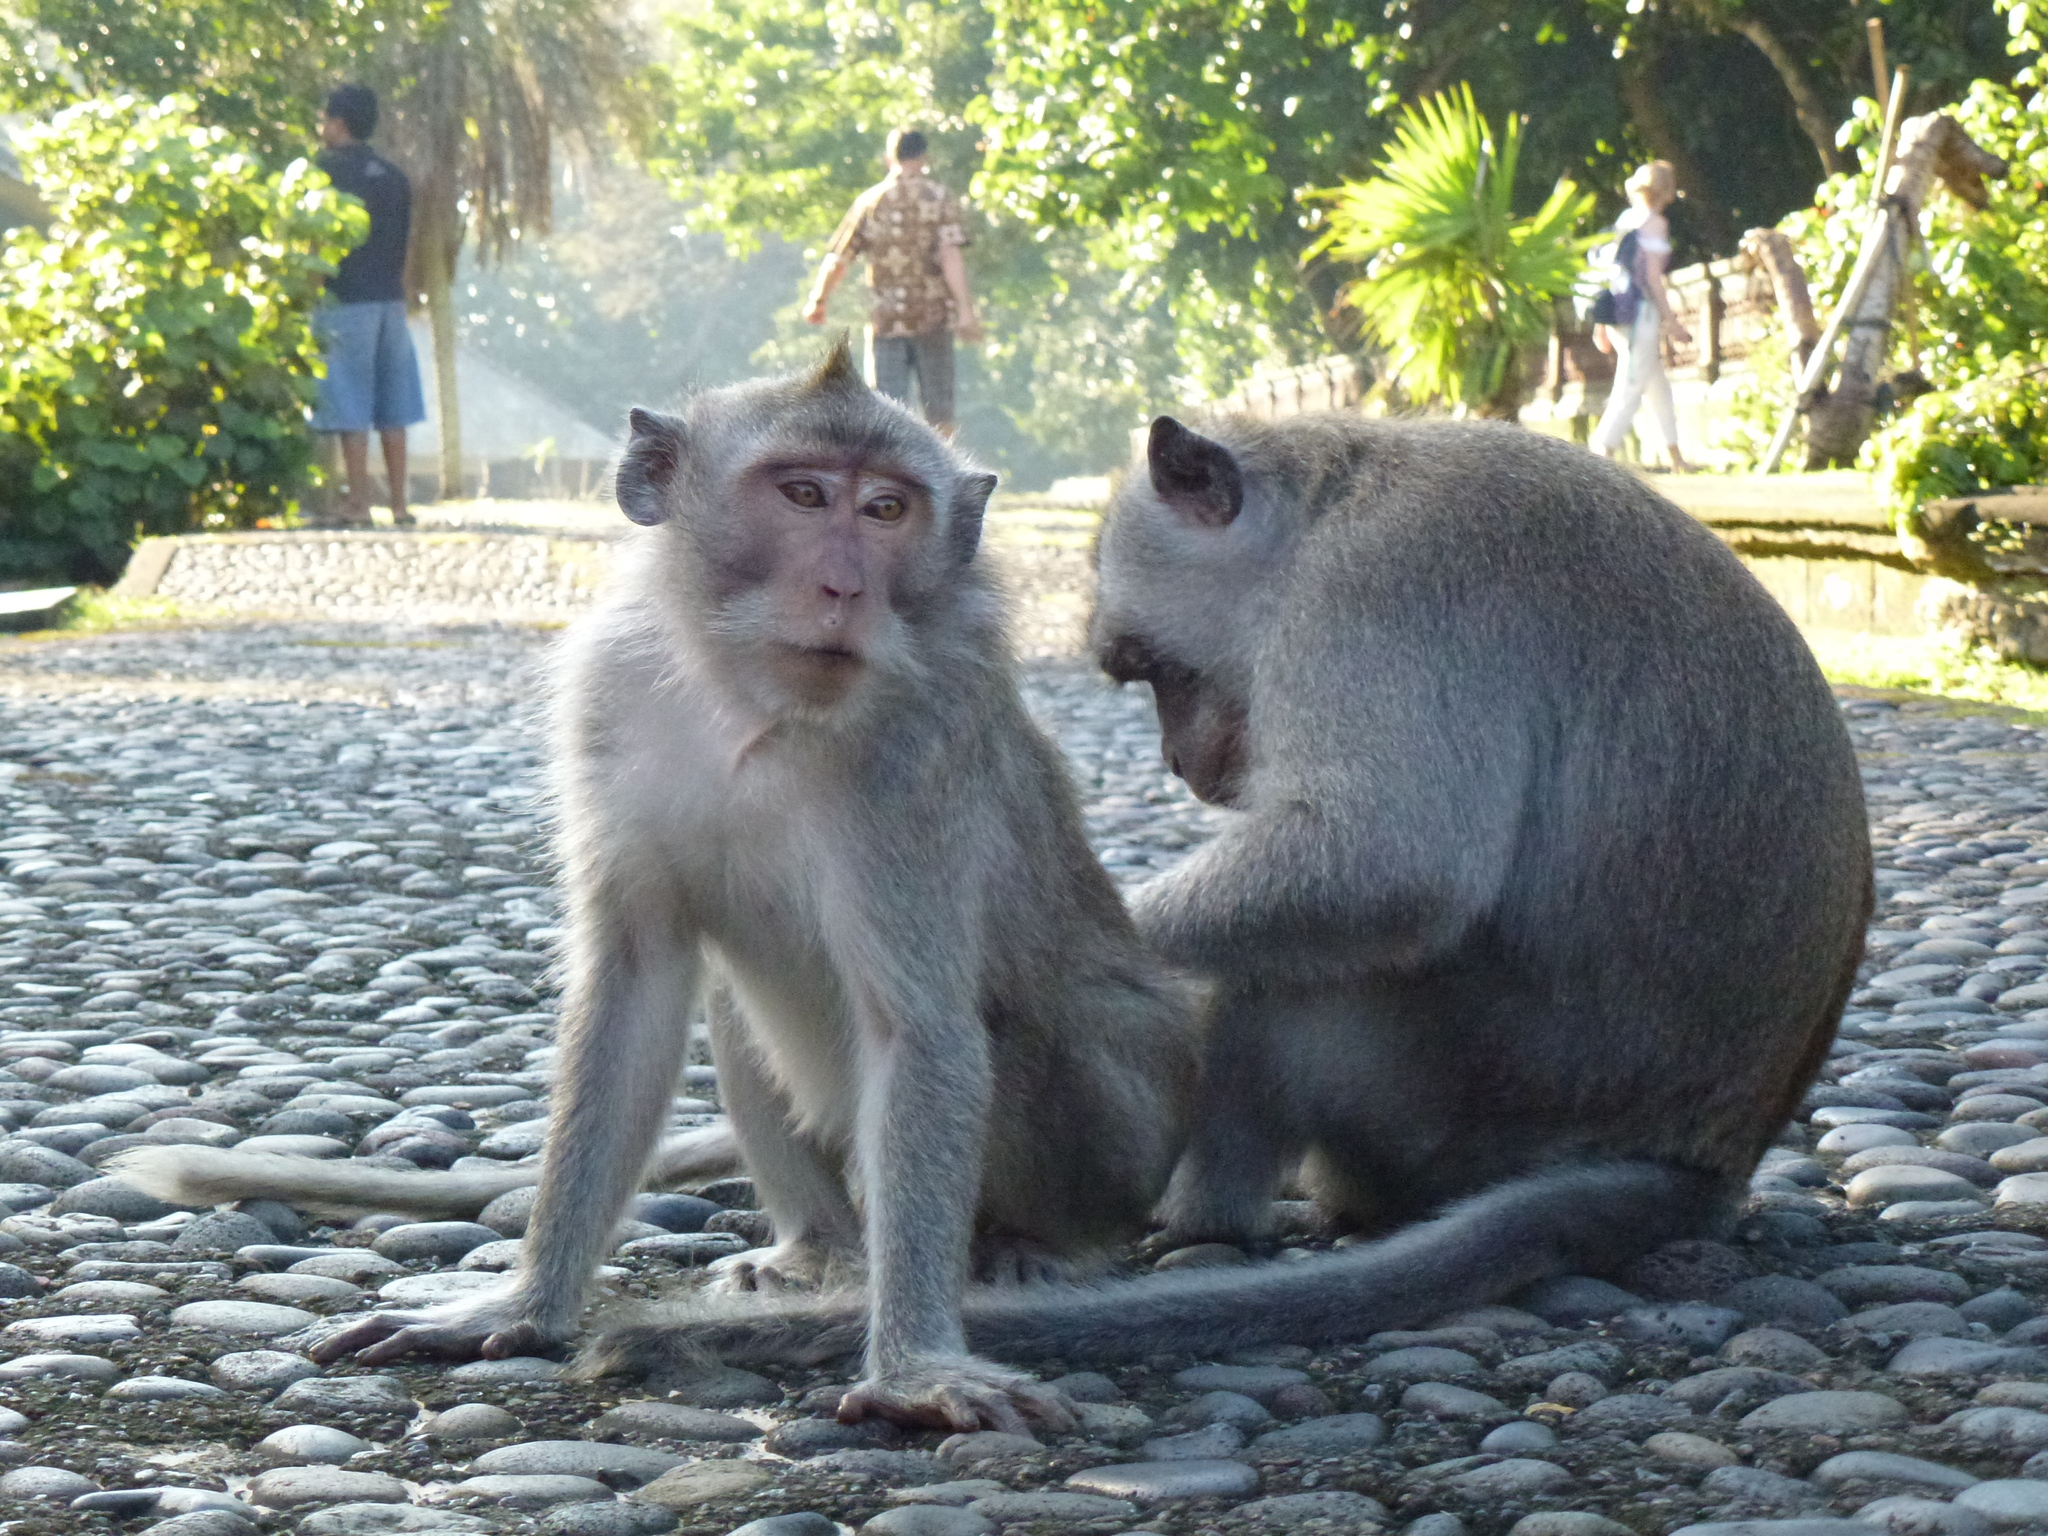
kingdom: Animalia
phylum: Chordata
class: Mammalia
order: Primates
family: Cercopithecidae
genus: Macaca
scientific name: Macaca fascicularis
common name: Crab-eating macaque
